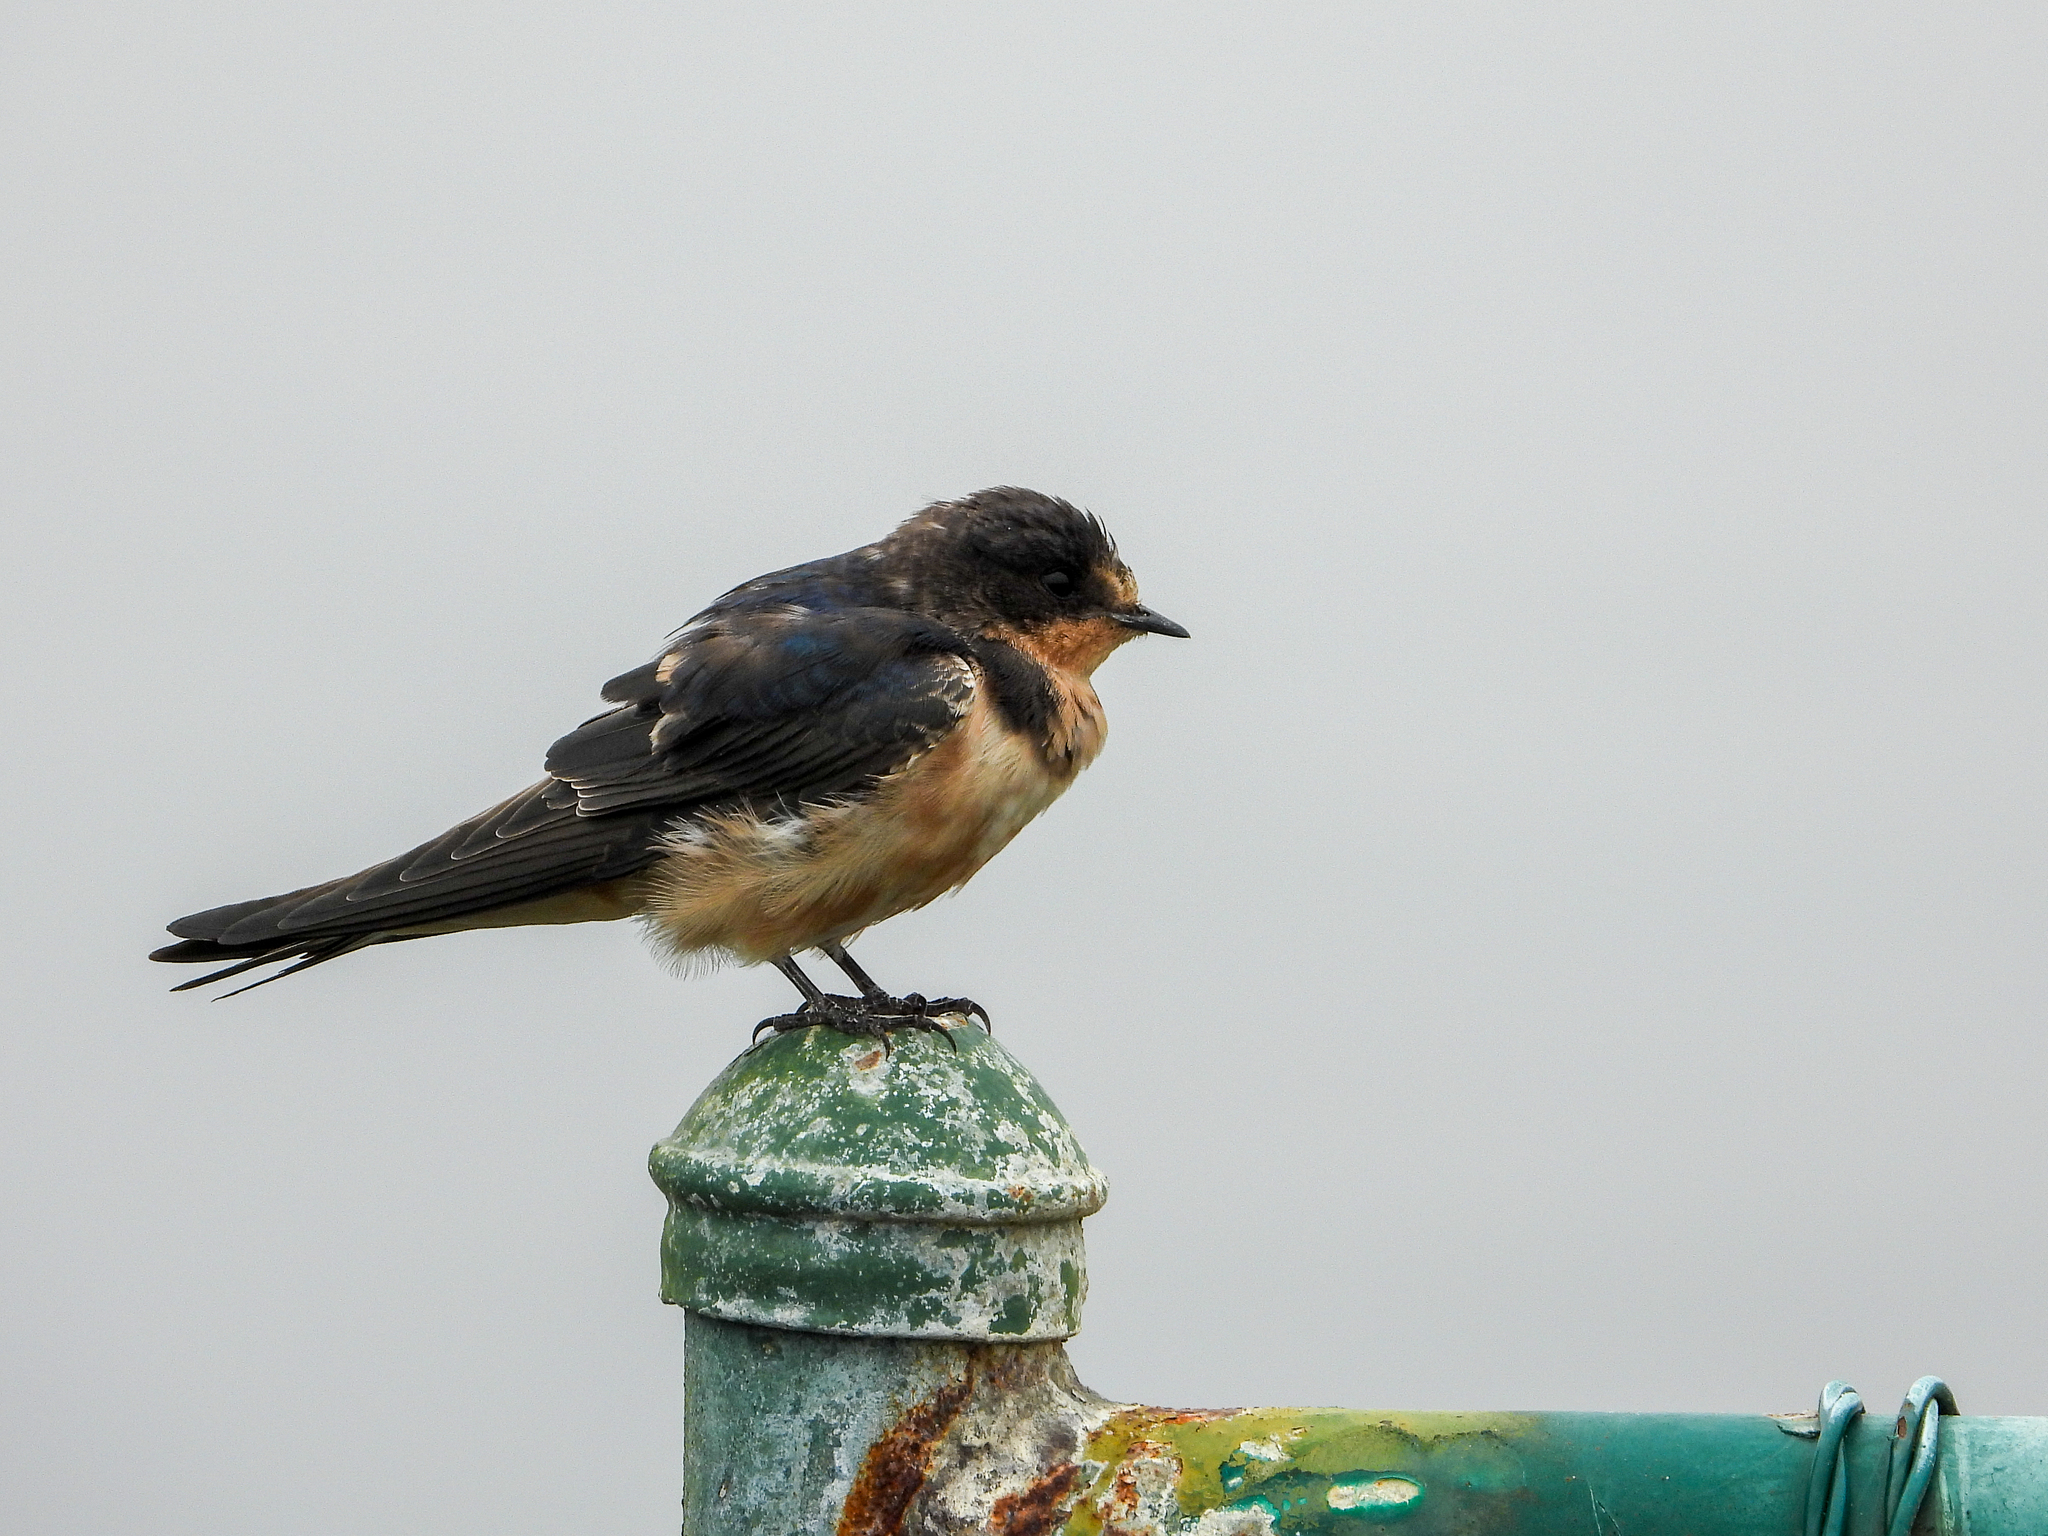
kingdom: Animalia
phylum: Chordata
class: Aves
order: Passeriformes
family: Hirundinidae
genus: Hirundo
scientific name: Hirundo rustica
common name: Barn swallow
